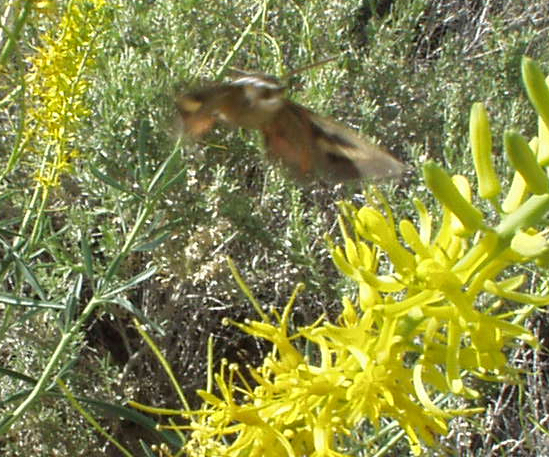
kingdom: Animalia
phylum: Arthropoda
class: Insecta
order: Lepidoptera
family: Sphingidae
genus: Hyles
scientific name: Hyles lineata
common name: White-lined sphinx
